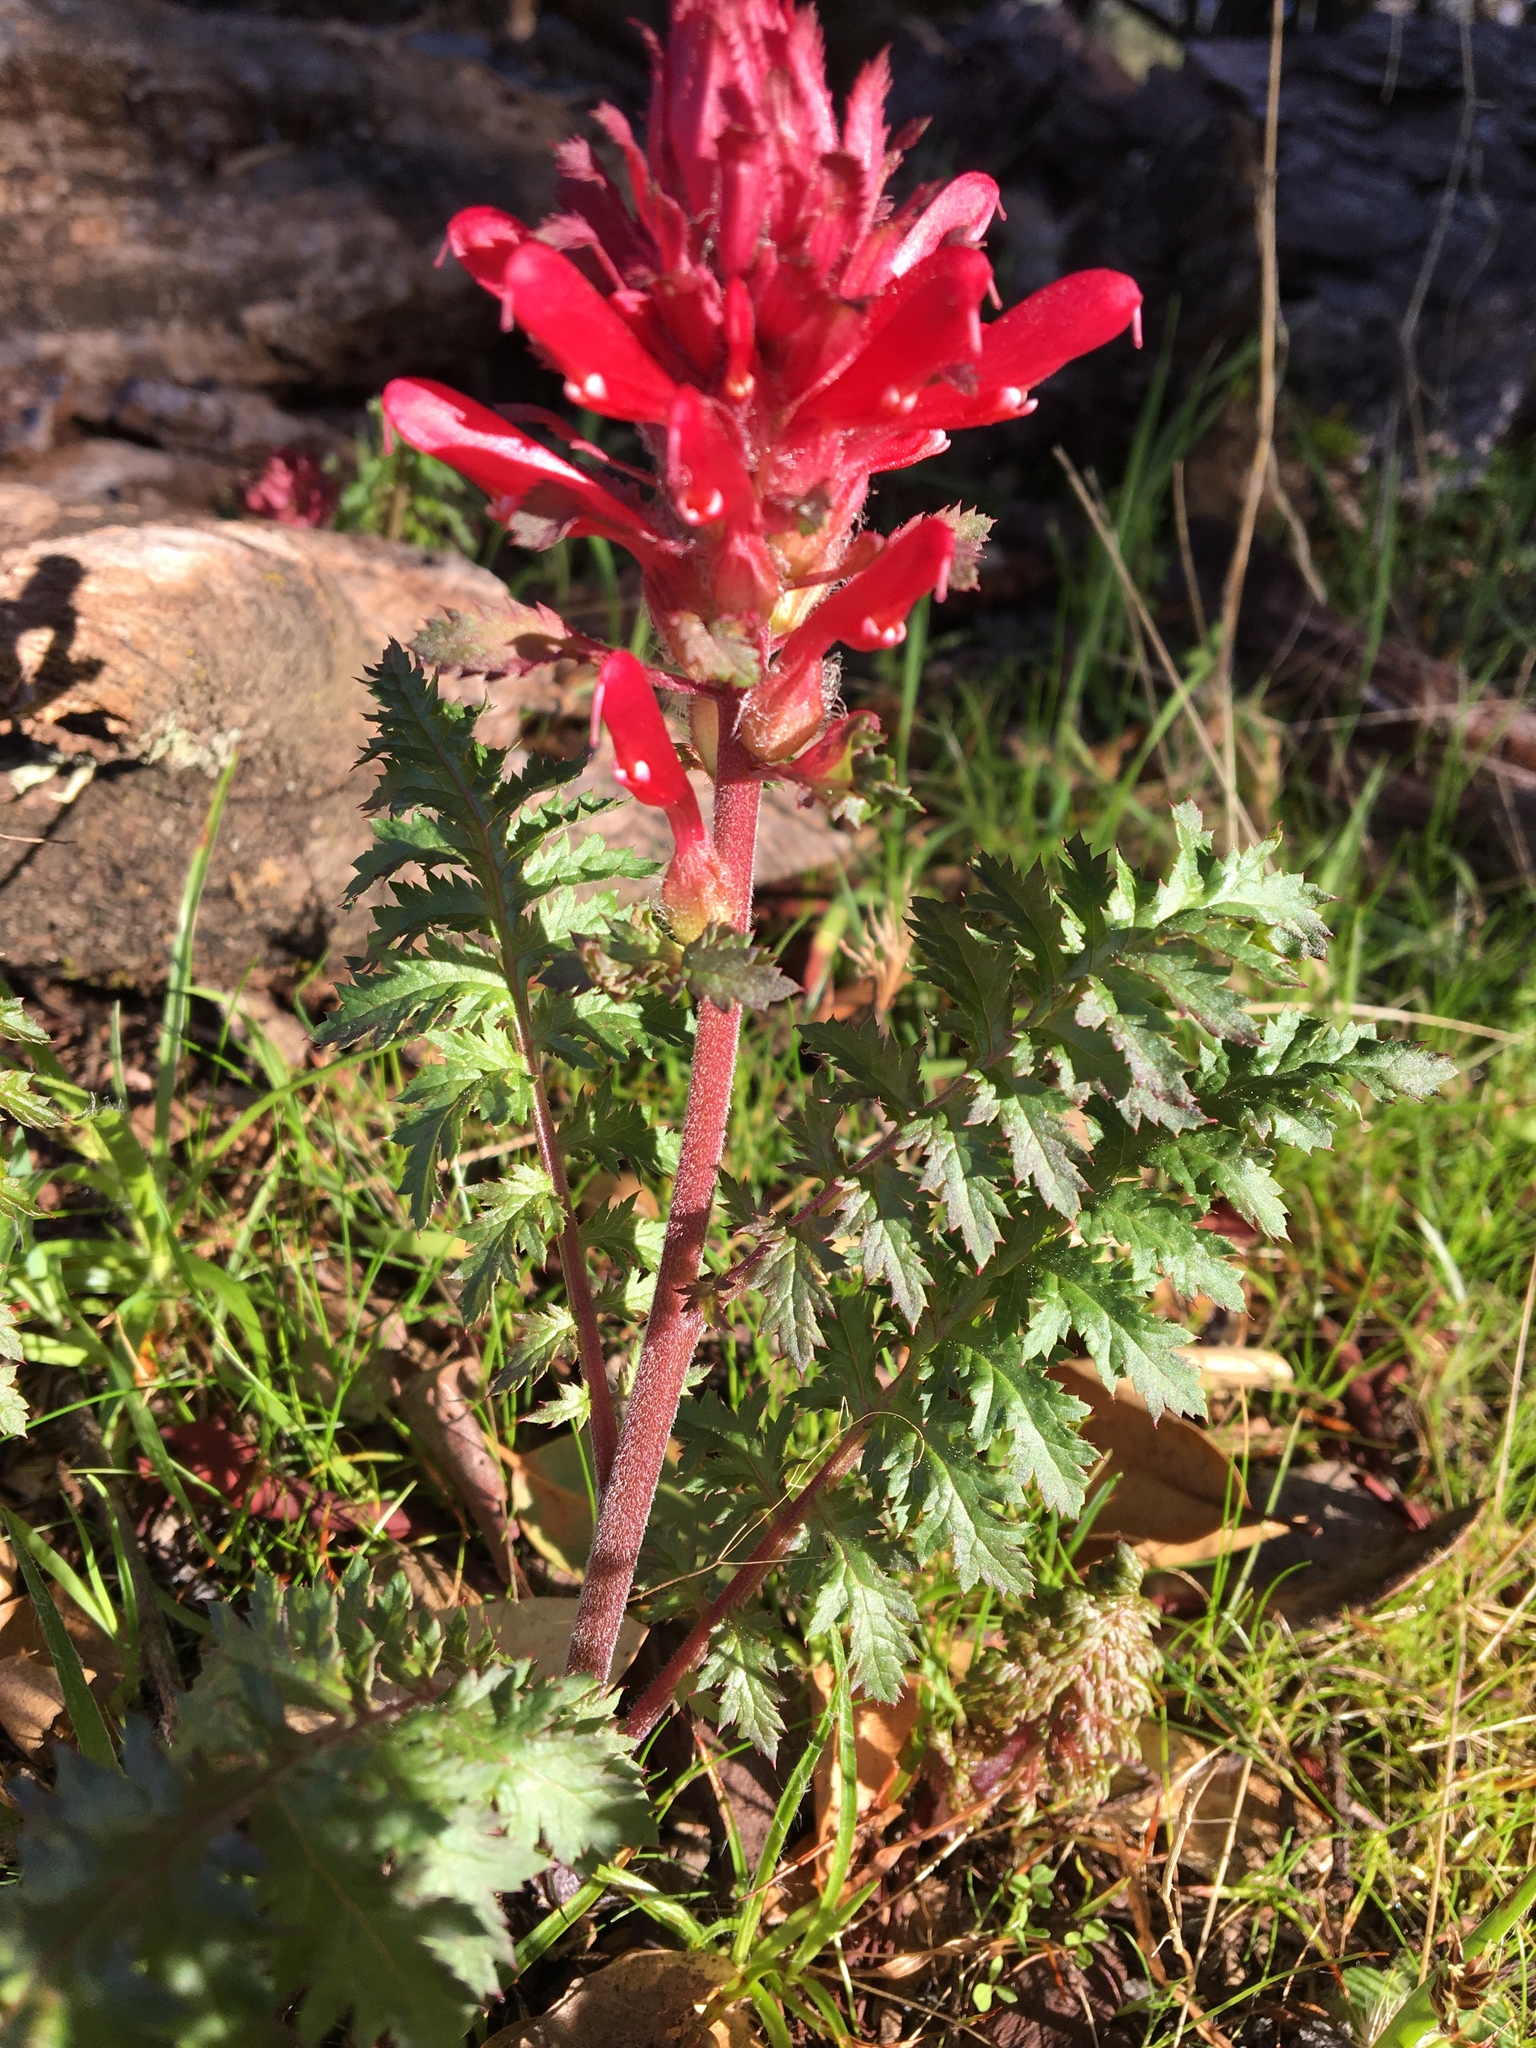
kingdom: Plantae
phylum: Tracheophyta
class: Magnoliopsida
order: Lamiales
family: Orobanchaceae
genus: Pedicularis
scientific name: Pedicularis densiflora
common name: Indian warrior
